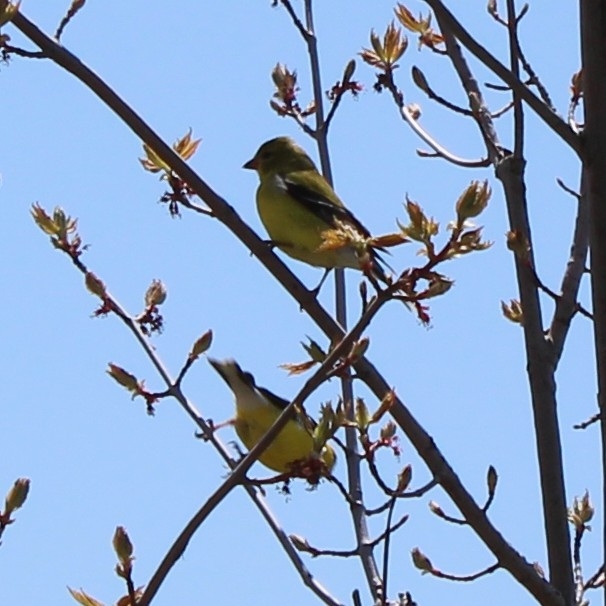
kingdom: Animalia
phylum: Chordata
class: Aves
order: Passeriformes
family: Fringillidae
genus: Spinus
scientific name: Spinus tristis
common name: American goldfinch
